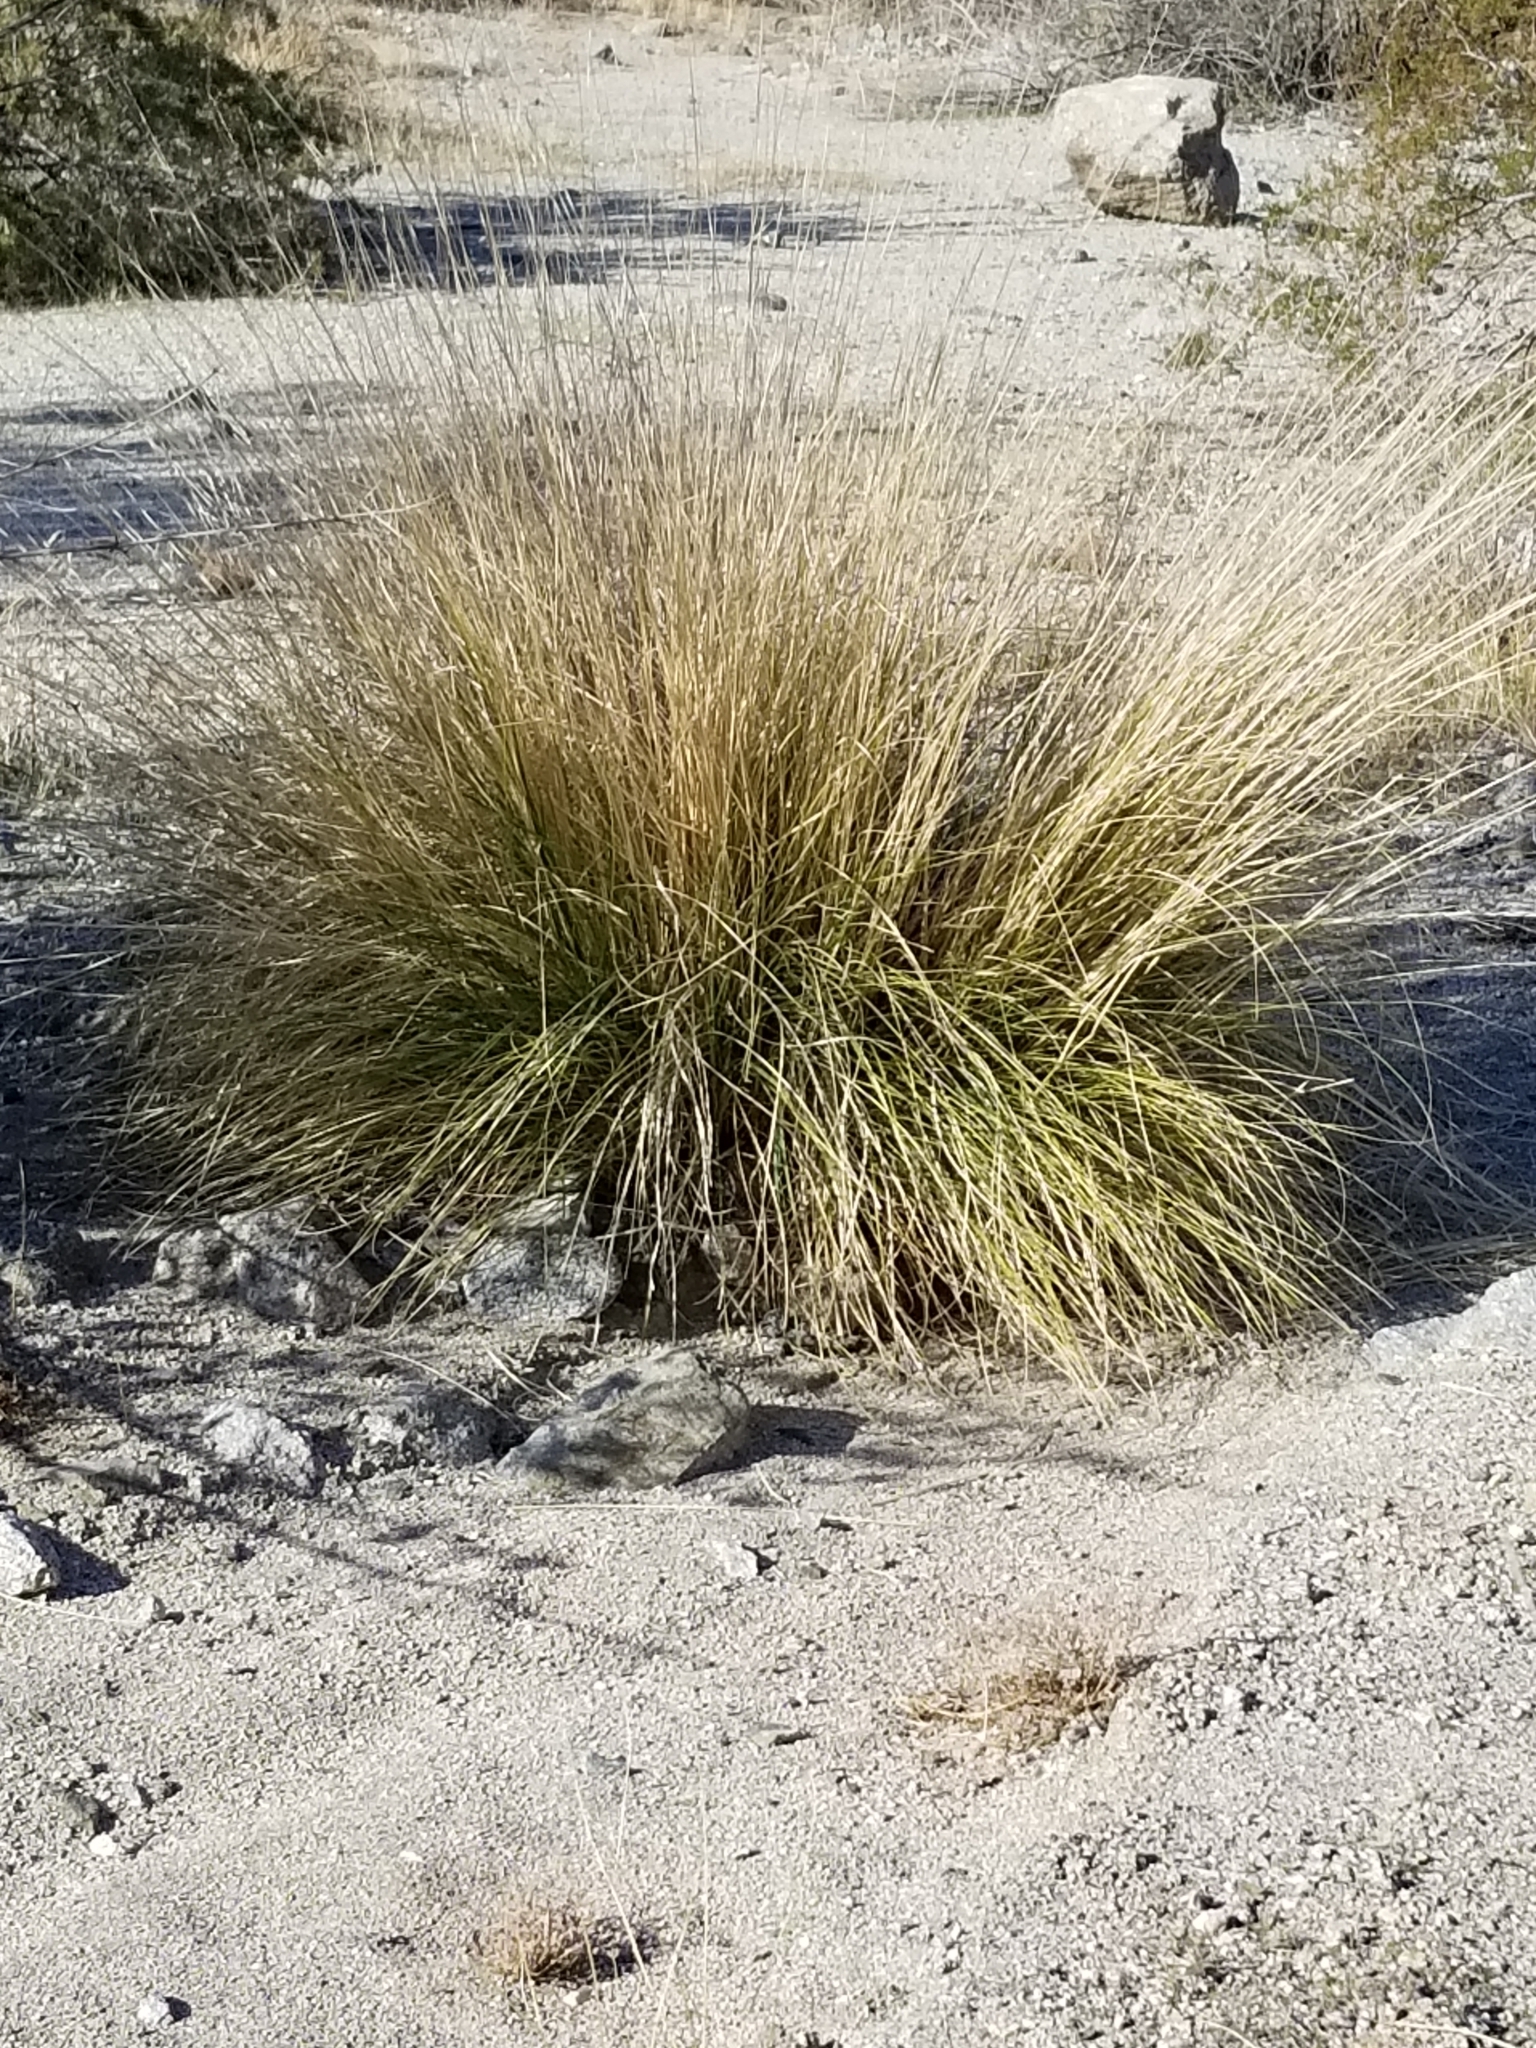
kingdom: Plantae
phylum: Tracheophyta
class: Liliopsida
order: Poales
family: Poaceae
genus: Cenchrus
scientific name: Cenchrus setaceus
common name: Crimson fountaingrass
